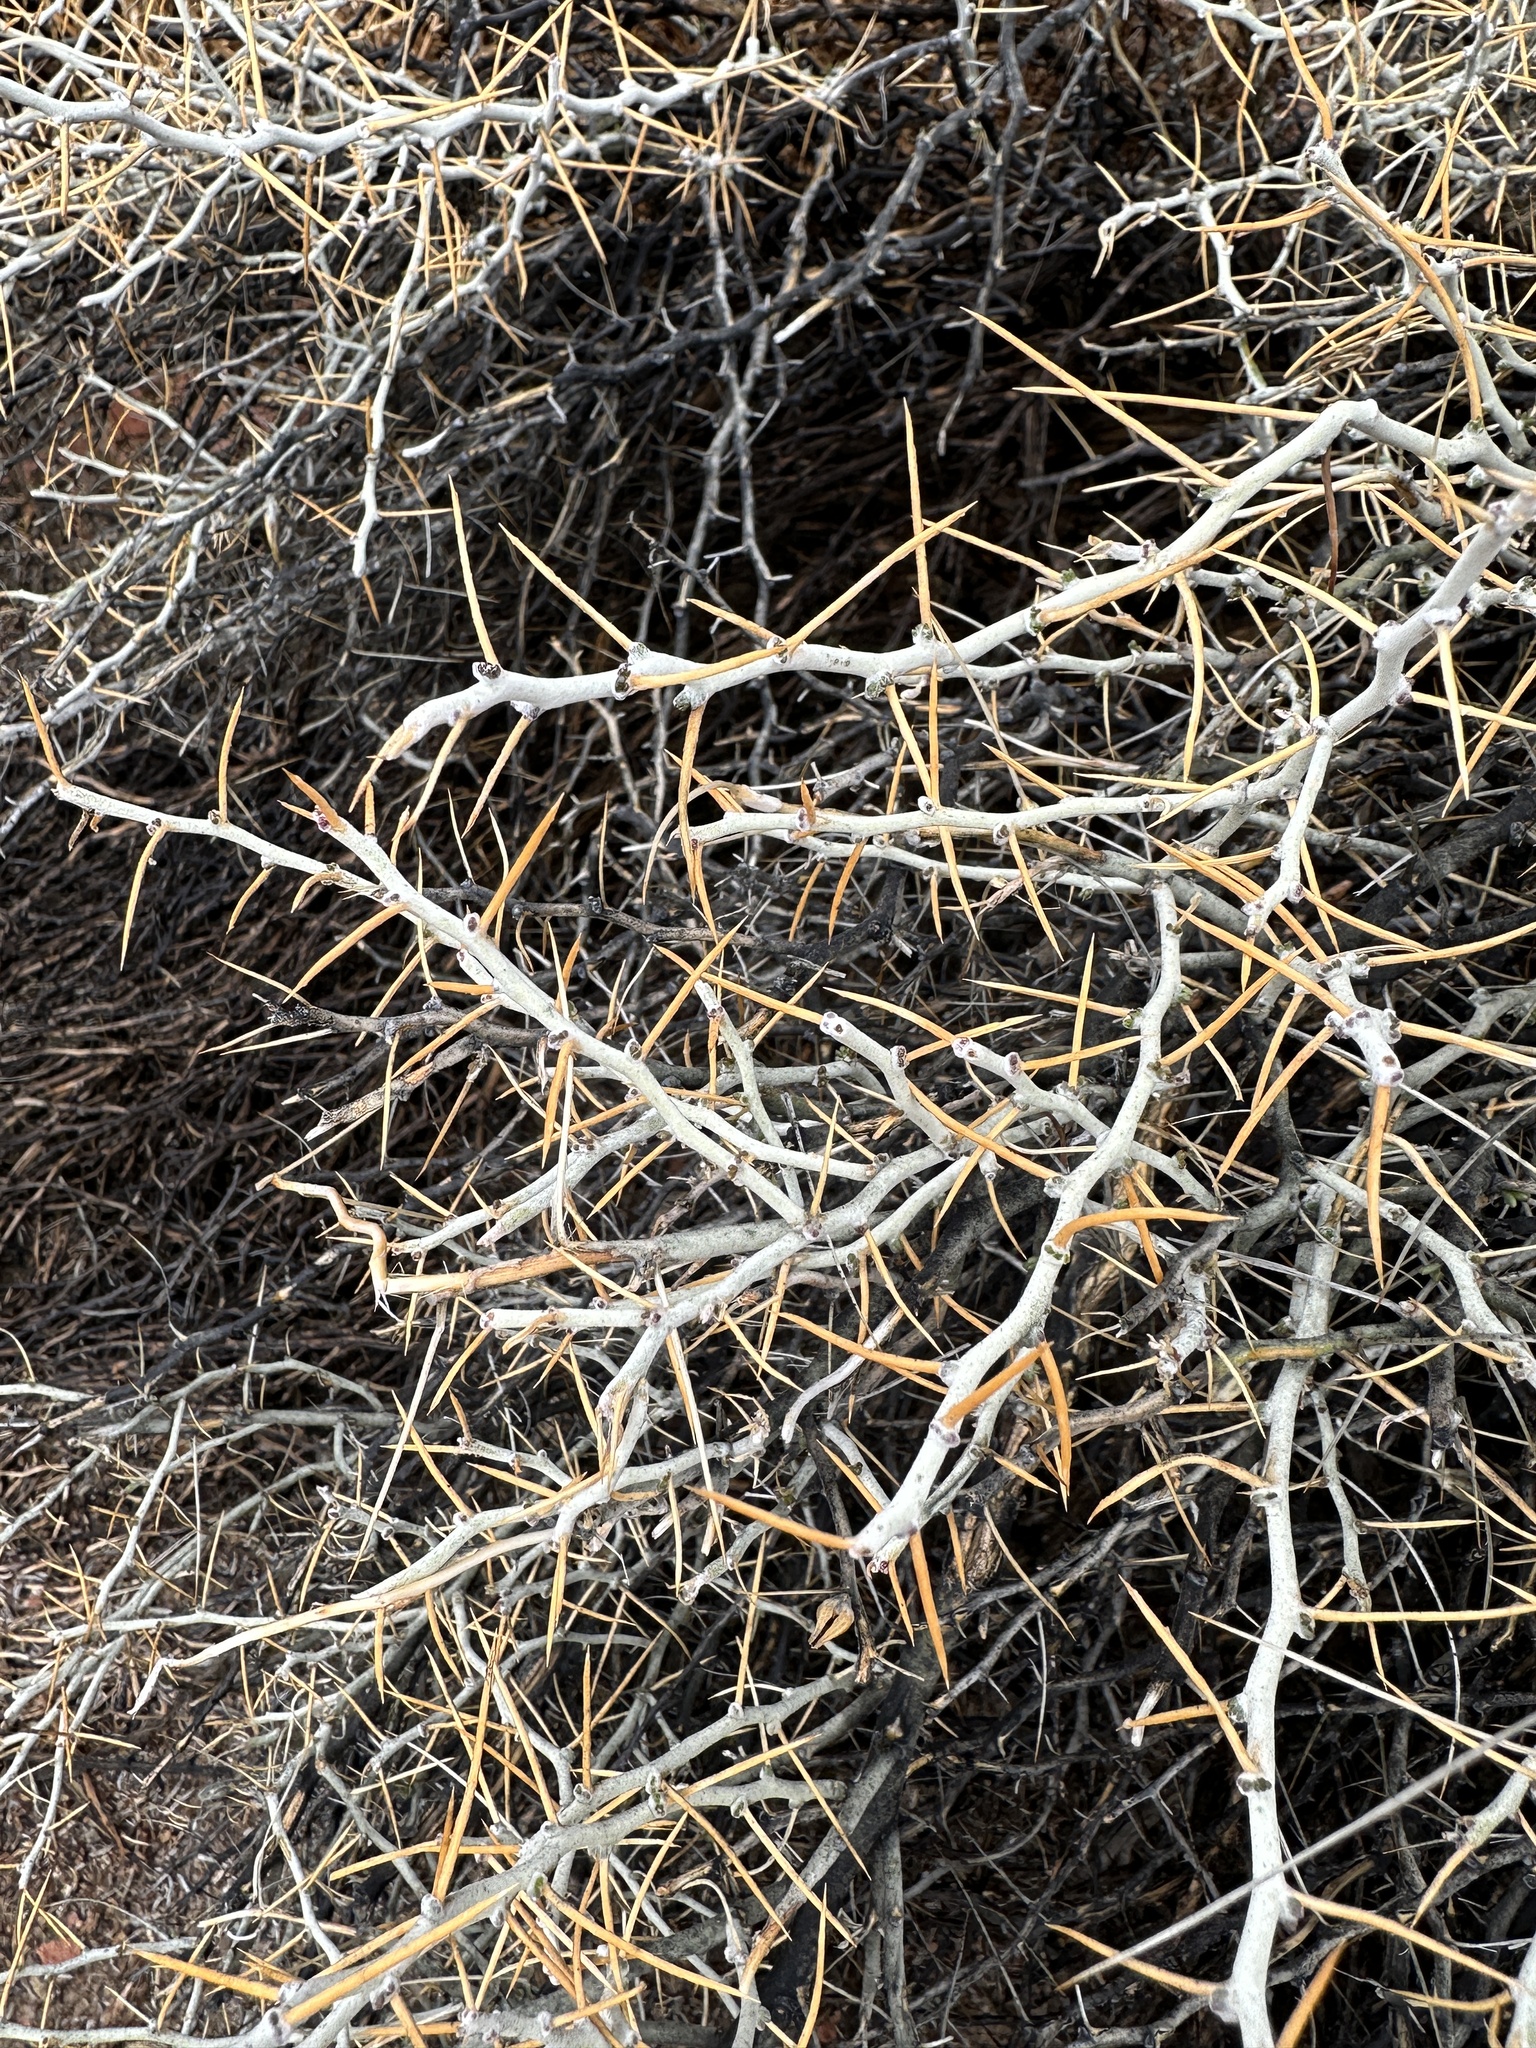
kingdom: Plantae
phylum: Tracheophyta
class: Magnoliopsida
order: Asterales
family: Asteraceae
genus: Tetradymia
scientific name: Tetradymia axillaris
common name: Long-spine horsebrush
